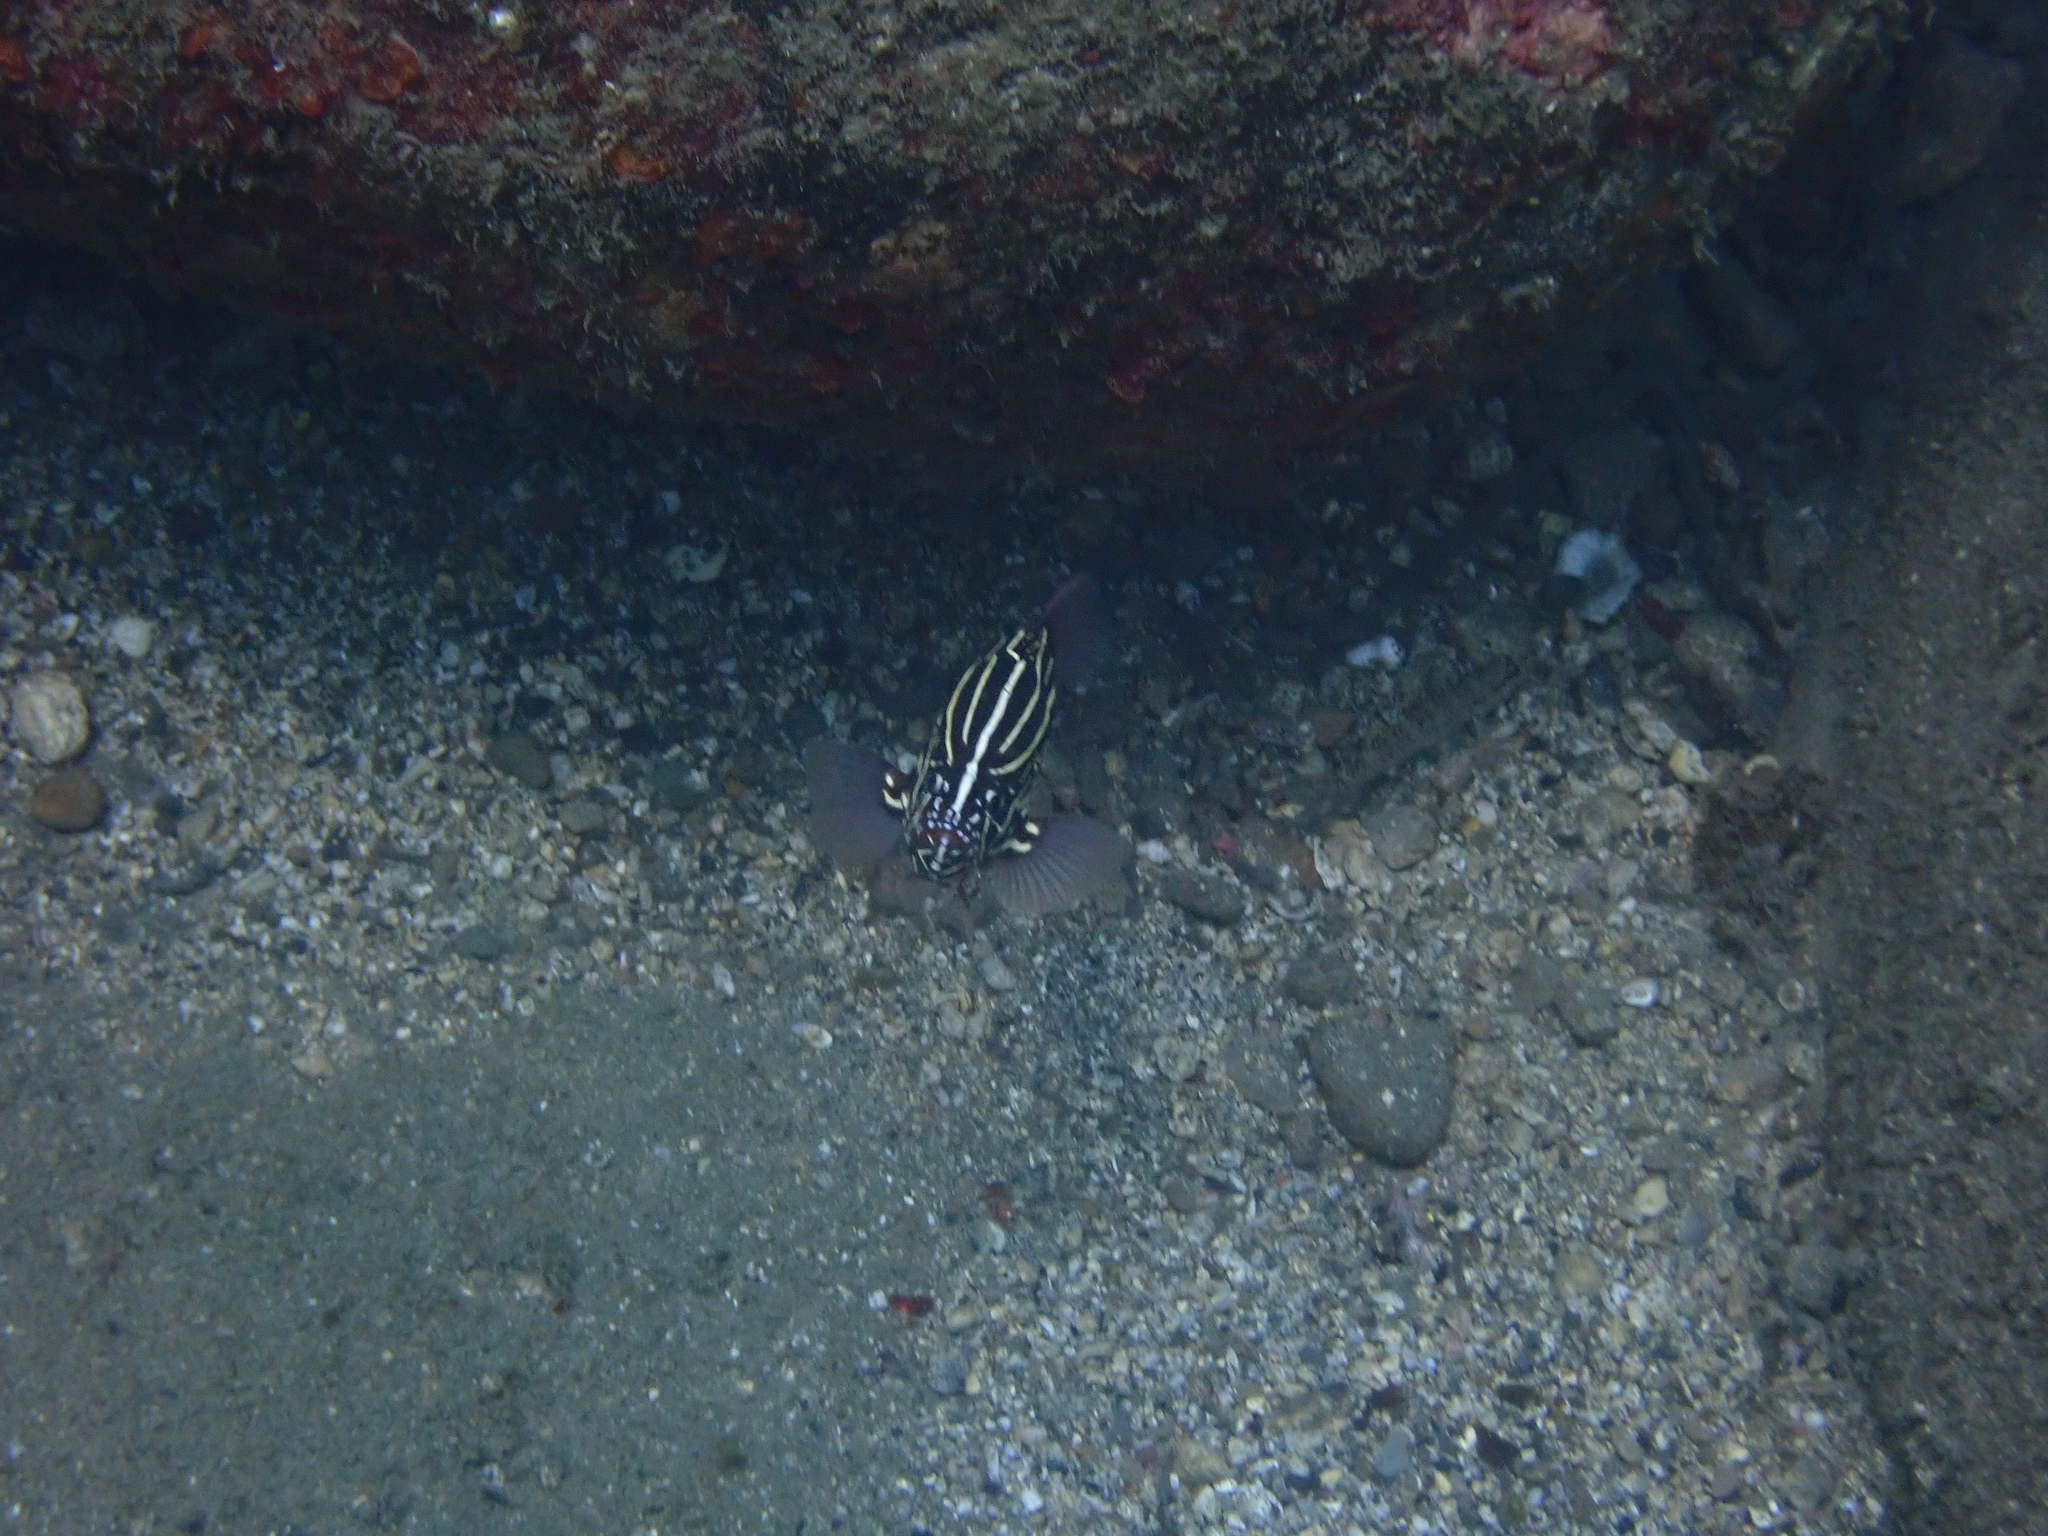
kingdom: Animalia
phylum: Chordata
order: Perciformes
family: Serranidae
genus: Grammistes
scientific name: Grammistes sexlineatus
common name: Sixline soapfish
